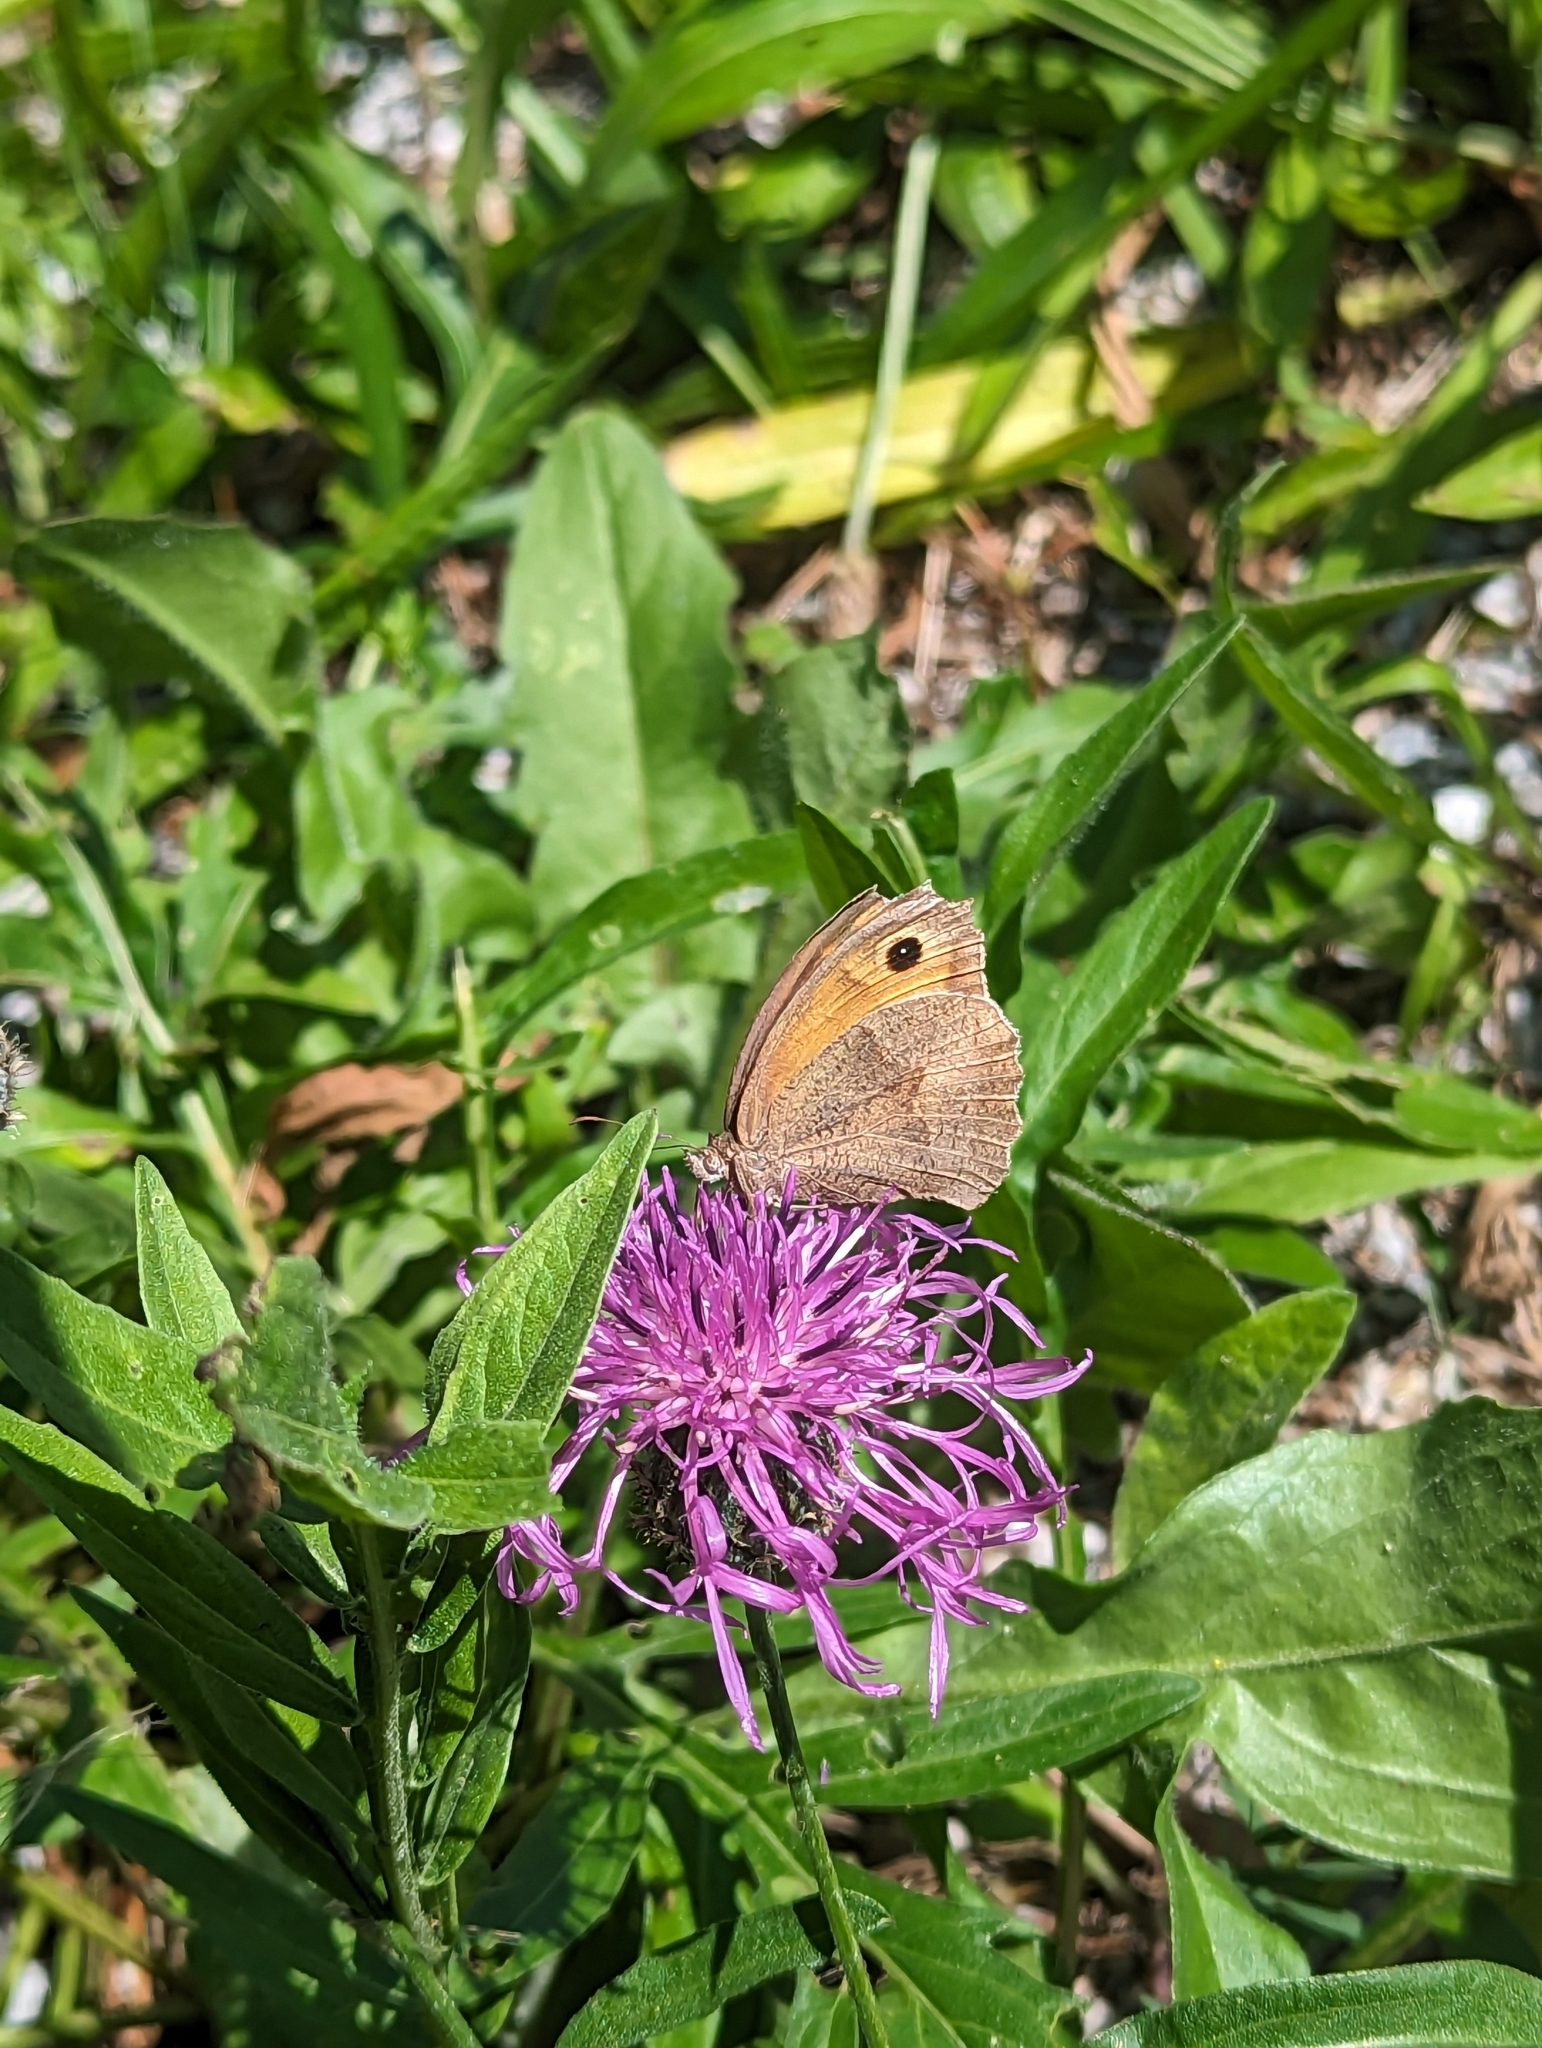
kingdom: Animalia
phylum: Arthropoda
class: Insecta
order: Lepidoptera
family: Nymphalidae
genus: Maniola
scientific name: Maniola jurtina
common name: Meadow brown
